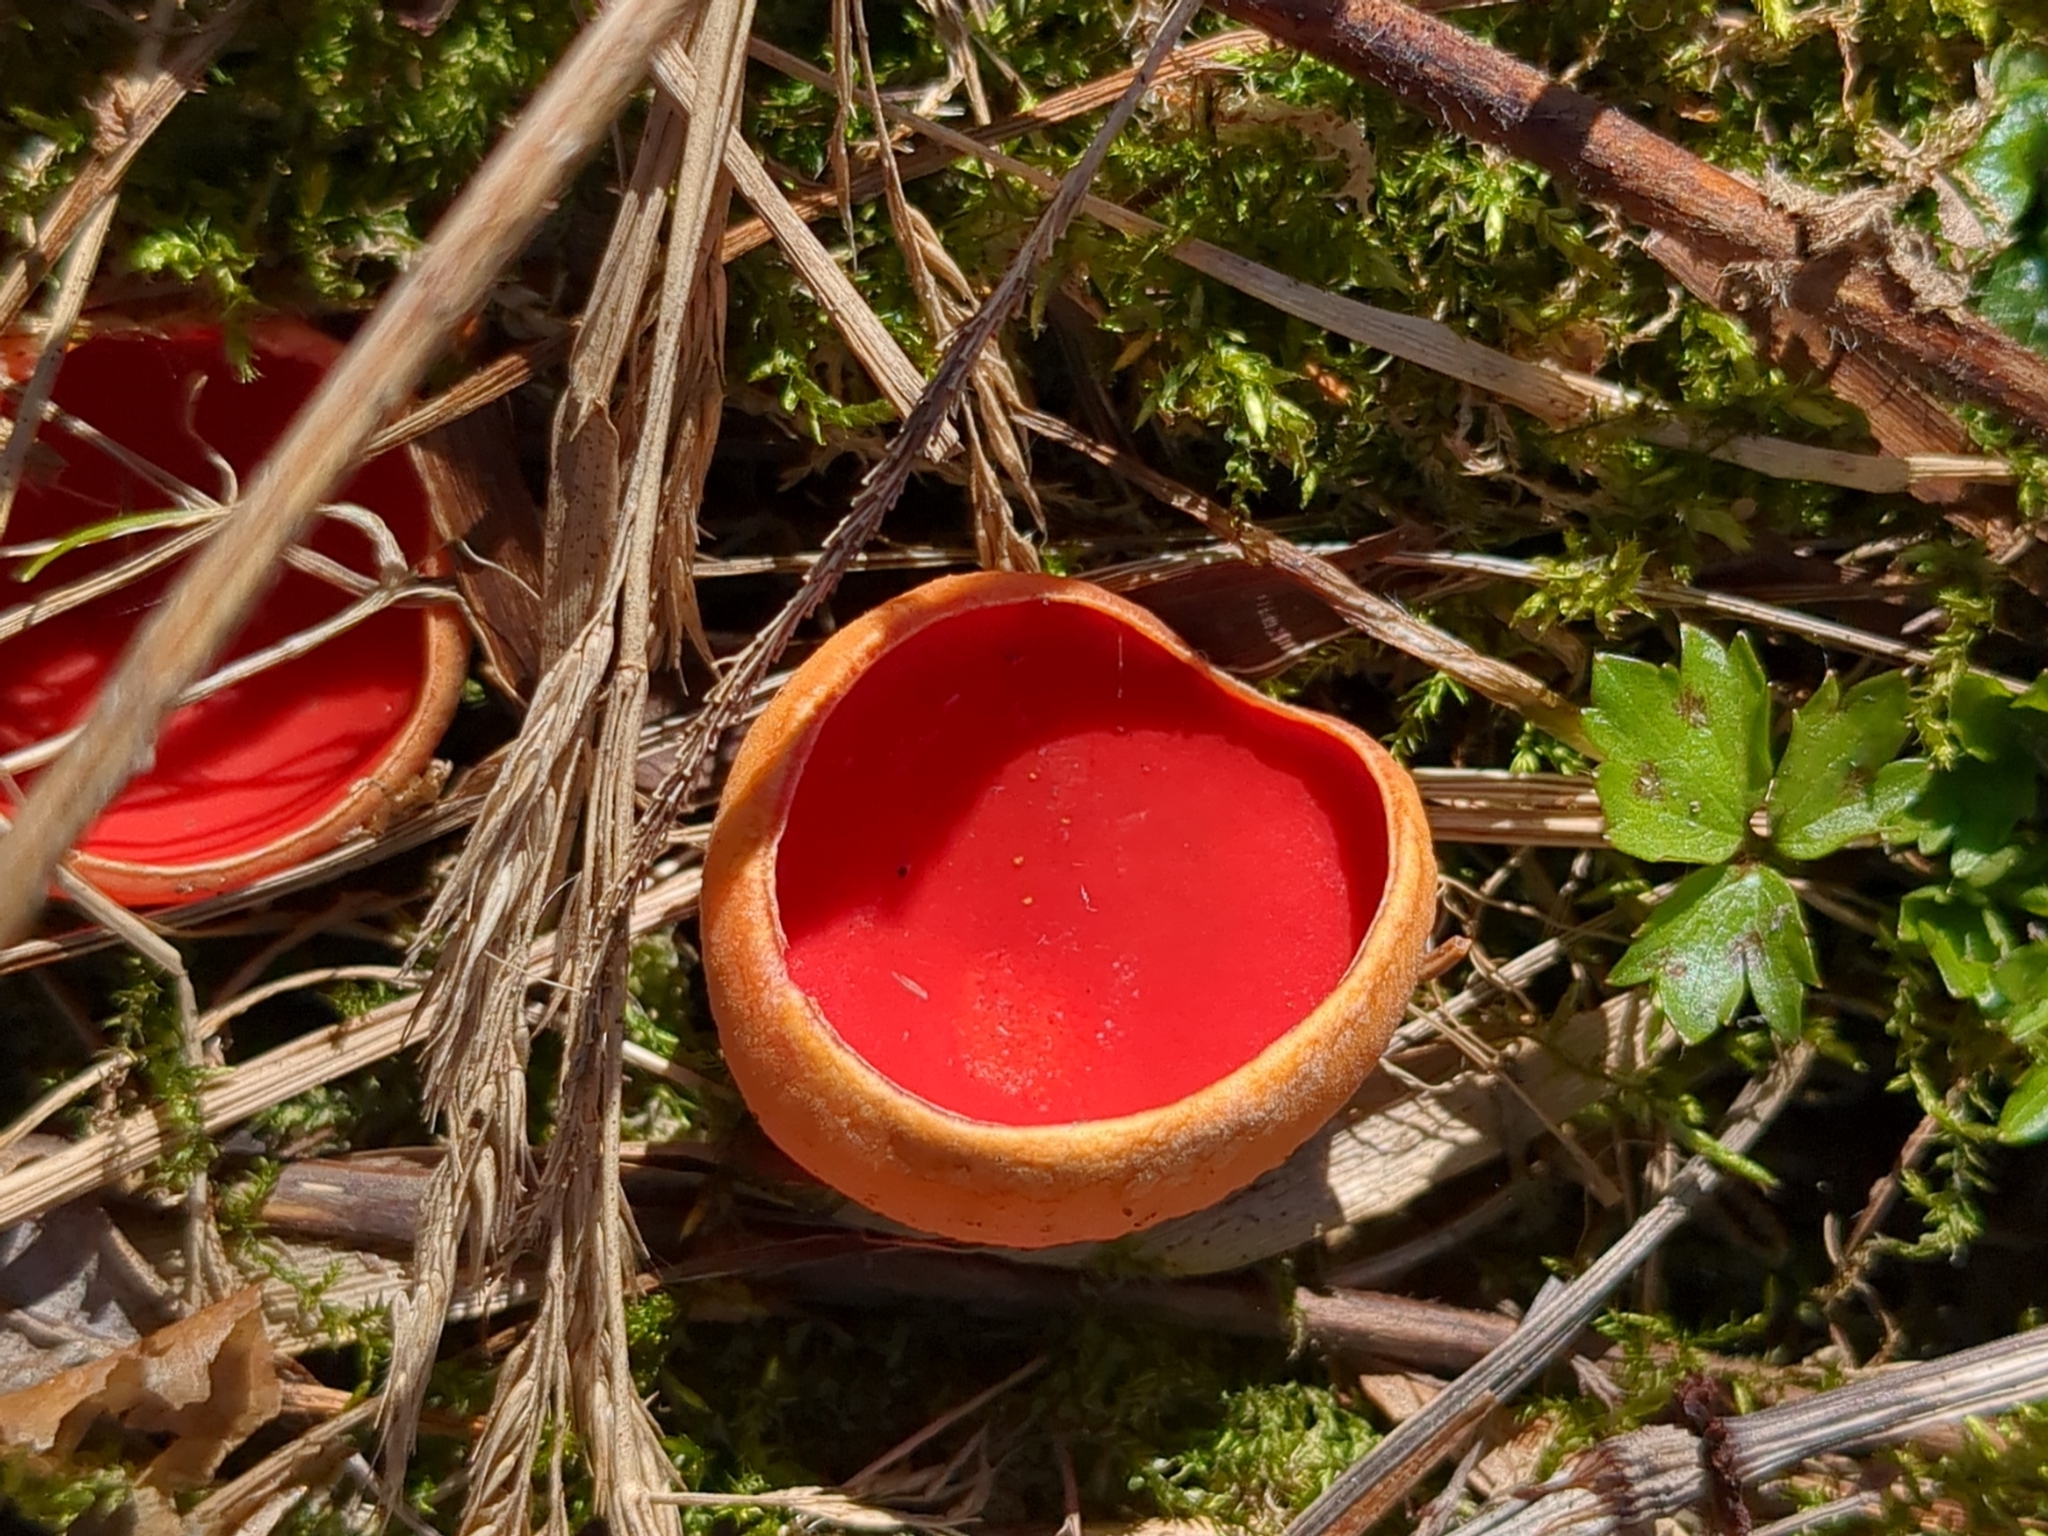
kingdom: Fungi
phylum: Ascomycota
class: Pezizomycetes
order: Pezizales
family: Sarcoscyphaceae
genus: Sarcoscypha
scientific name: Sarcoscypha austriaca
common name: Scarlet elfcup
